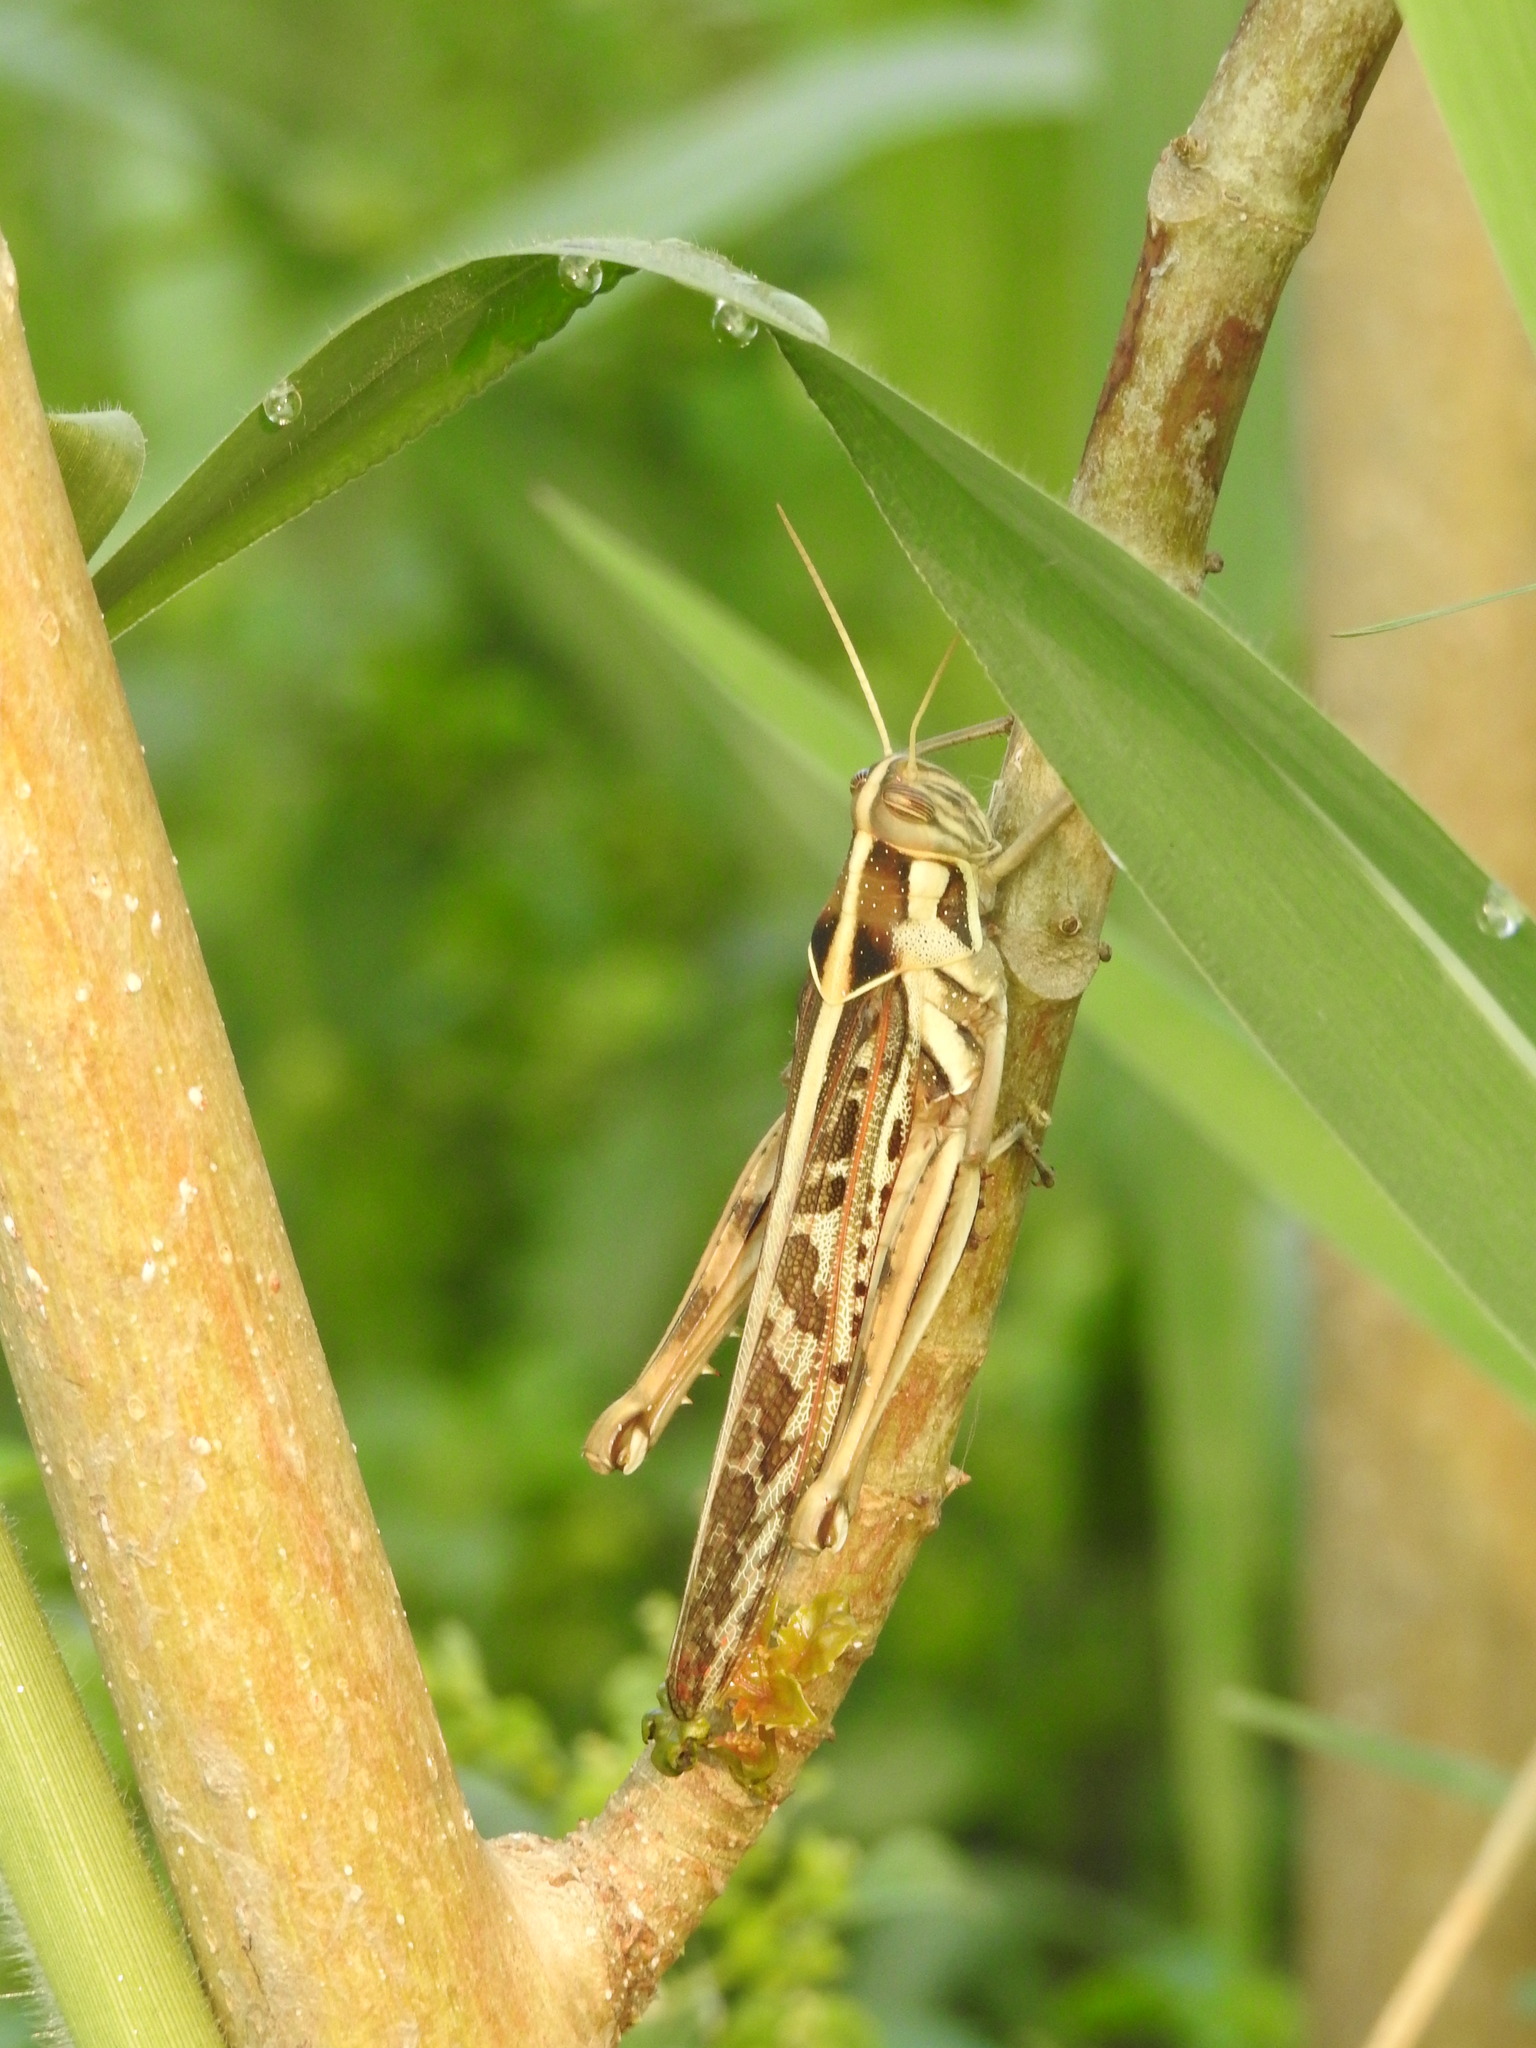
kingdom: Animalia
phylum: Arthropoda
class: Insecta
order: Orthoptera
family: Acrididae
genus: Cyrtacanthacris
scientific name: Cyrtacanthacris tatarica
